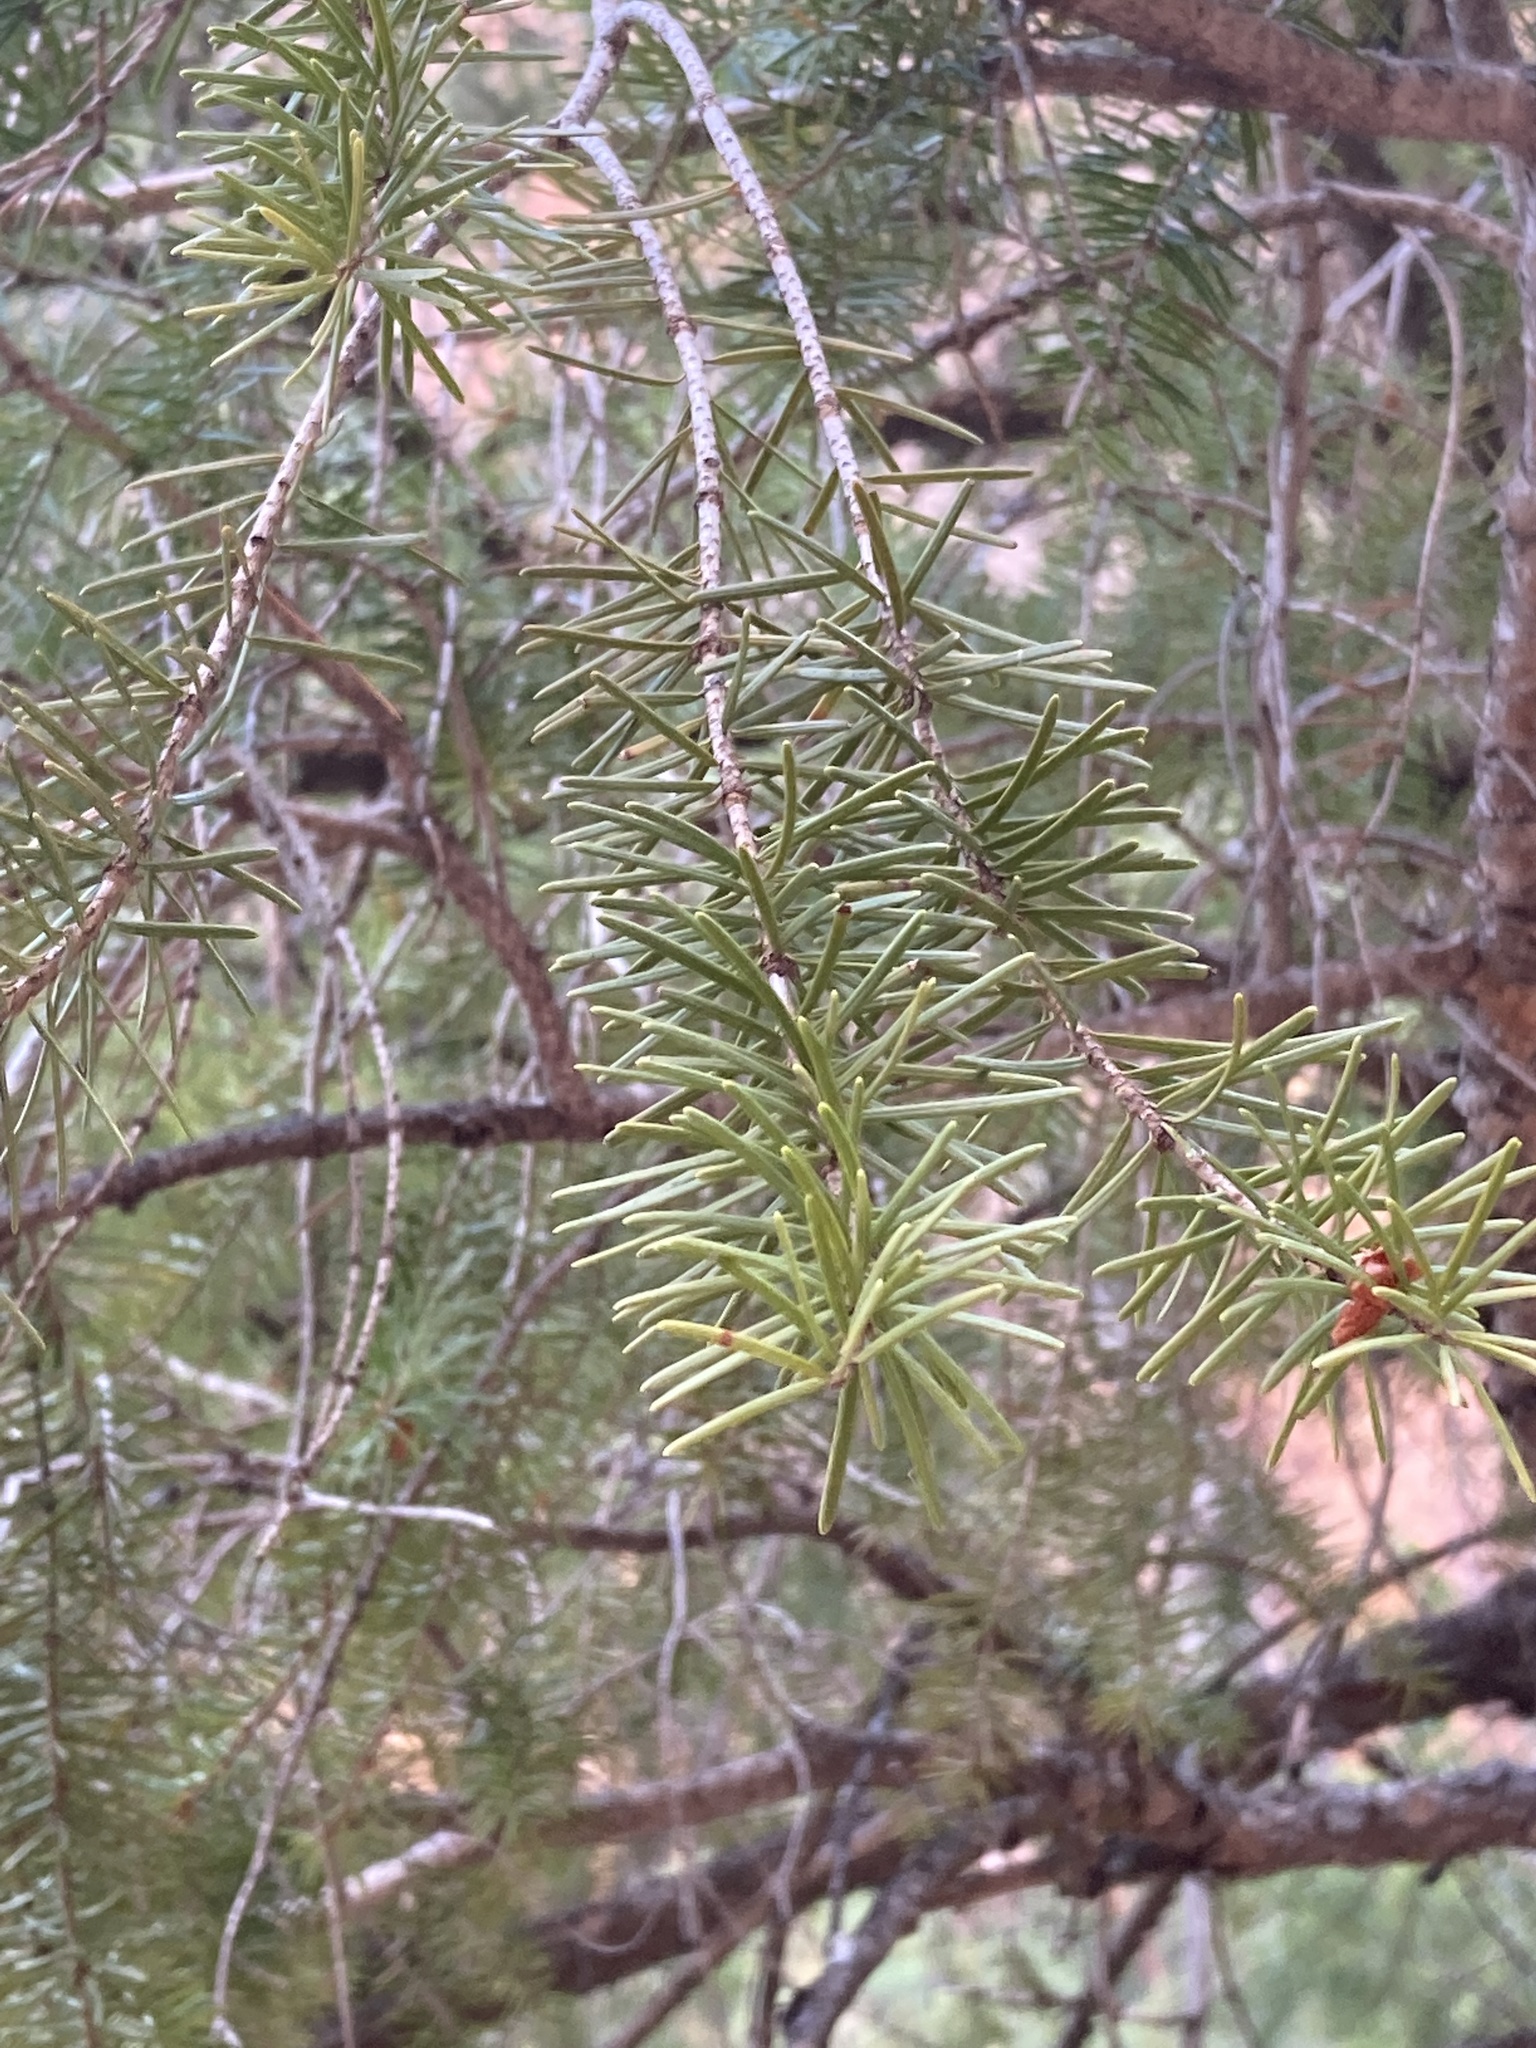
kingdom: Plantae
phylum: Tracheophyta
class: Pinopsida
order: Pinales
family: Pinaceae
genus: Pseudotsuga
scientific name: Pseudotsuga menziesii
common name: Douglas fir
